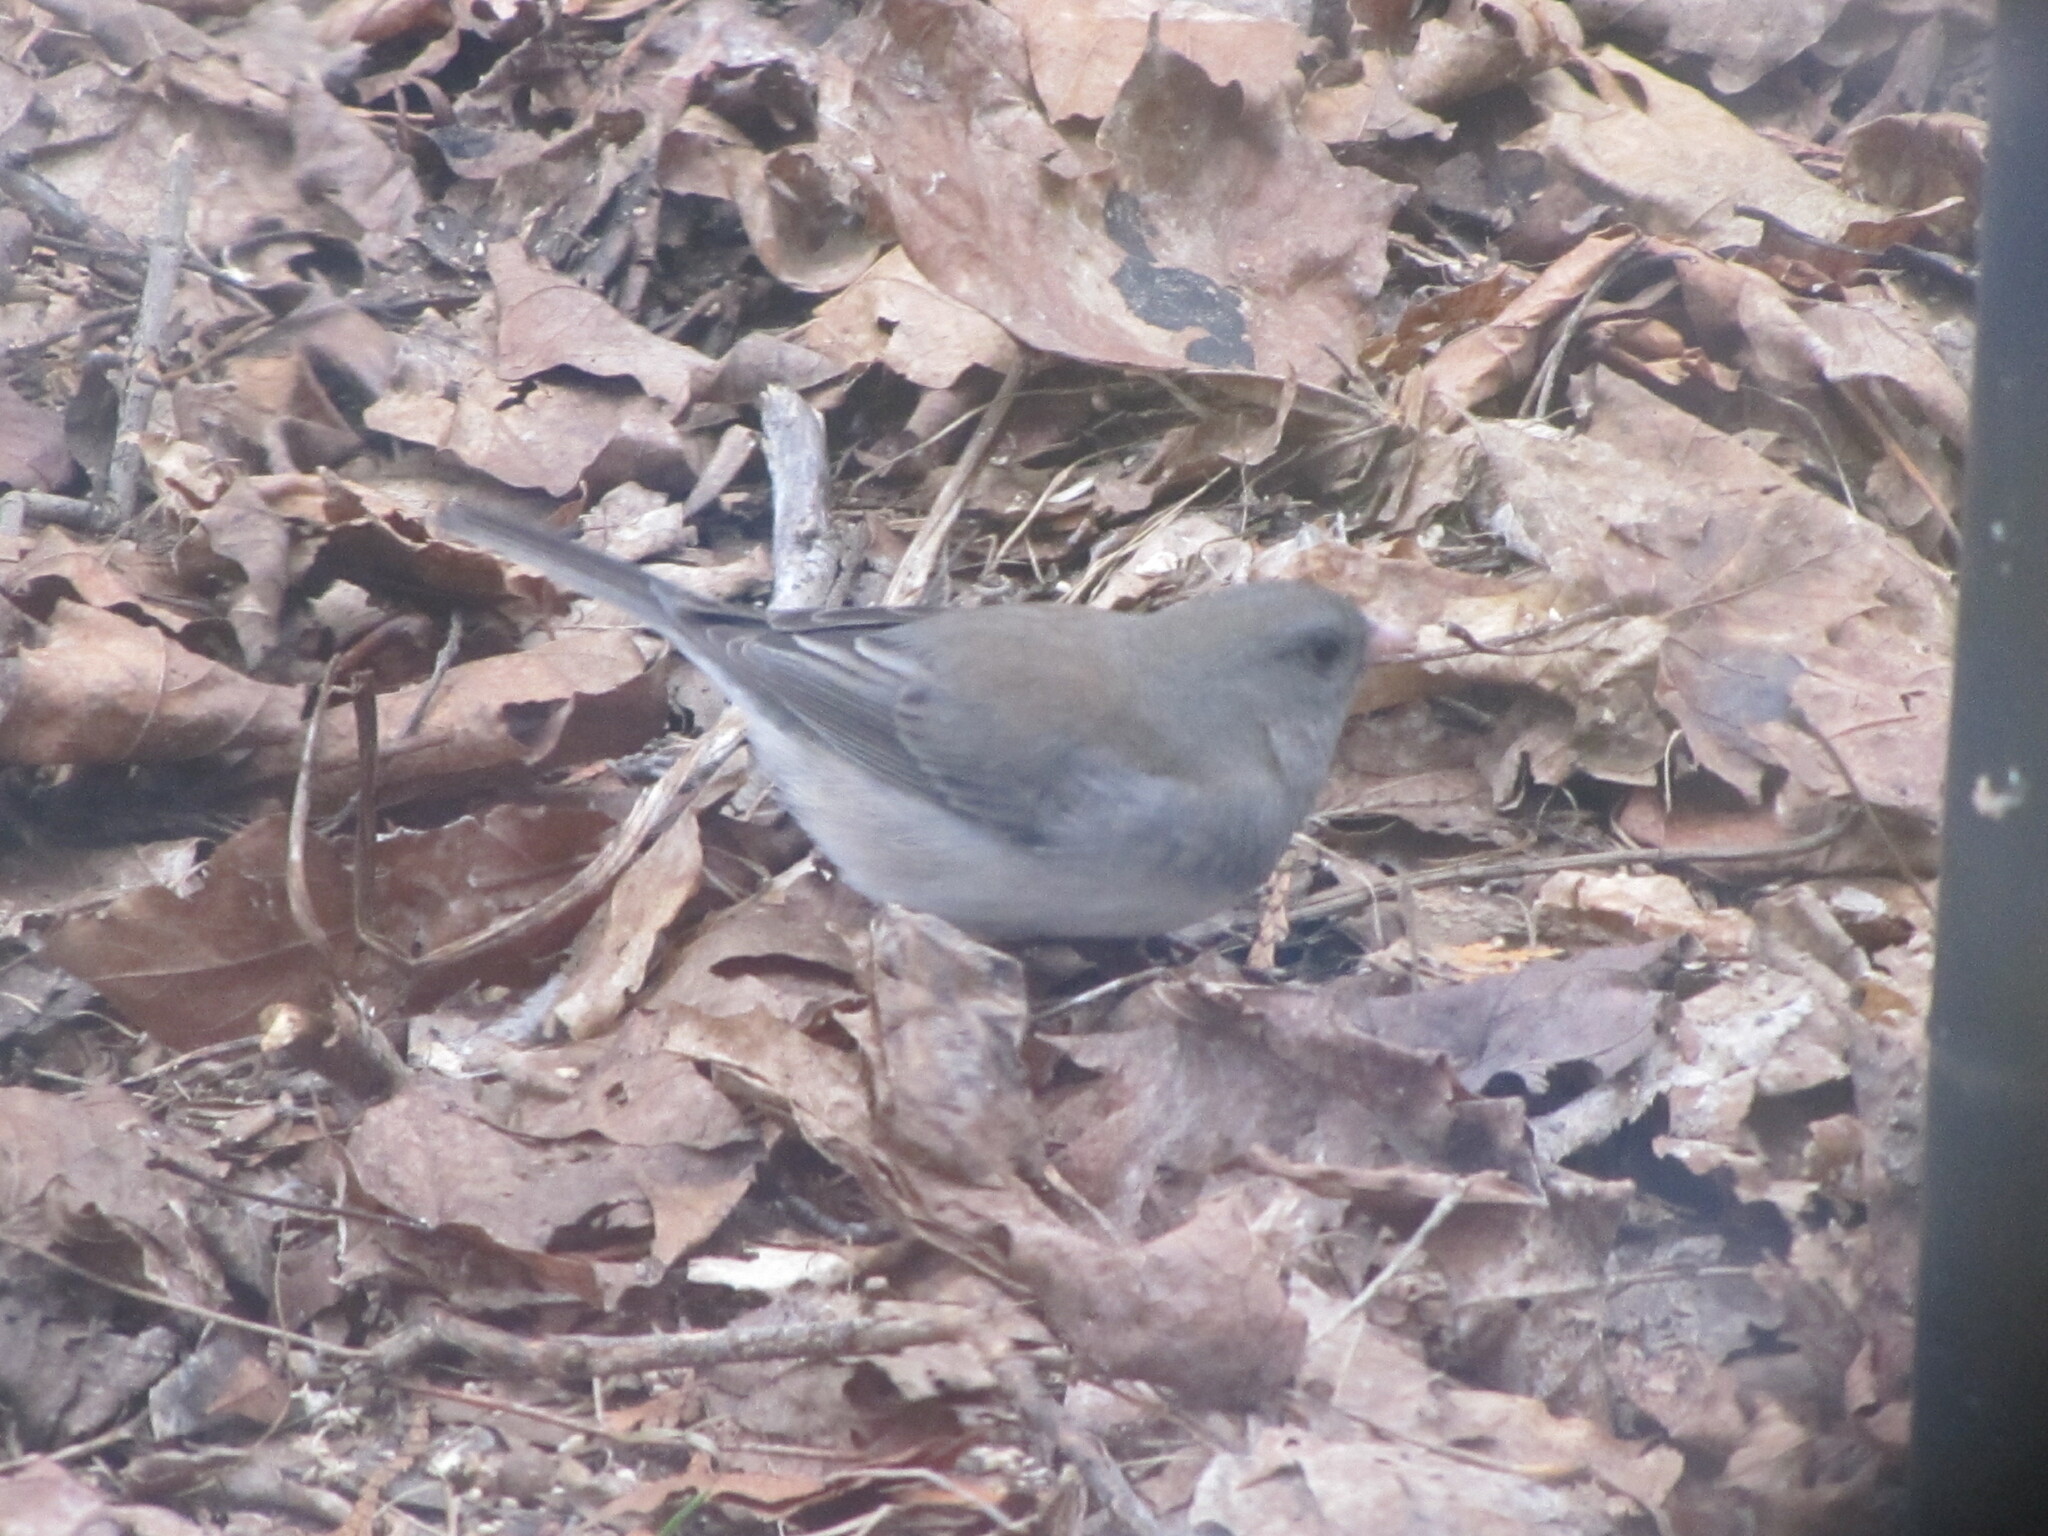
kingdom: Animalia
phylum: Chordata
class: Aves
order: Passeriformes
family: Passerellidae
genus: Junco
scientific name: Junco hyemalis
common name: Dark-eyed junco
